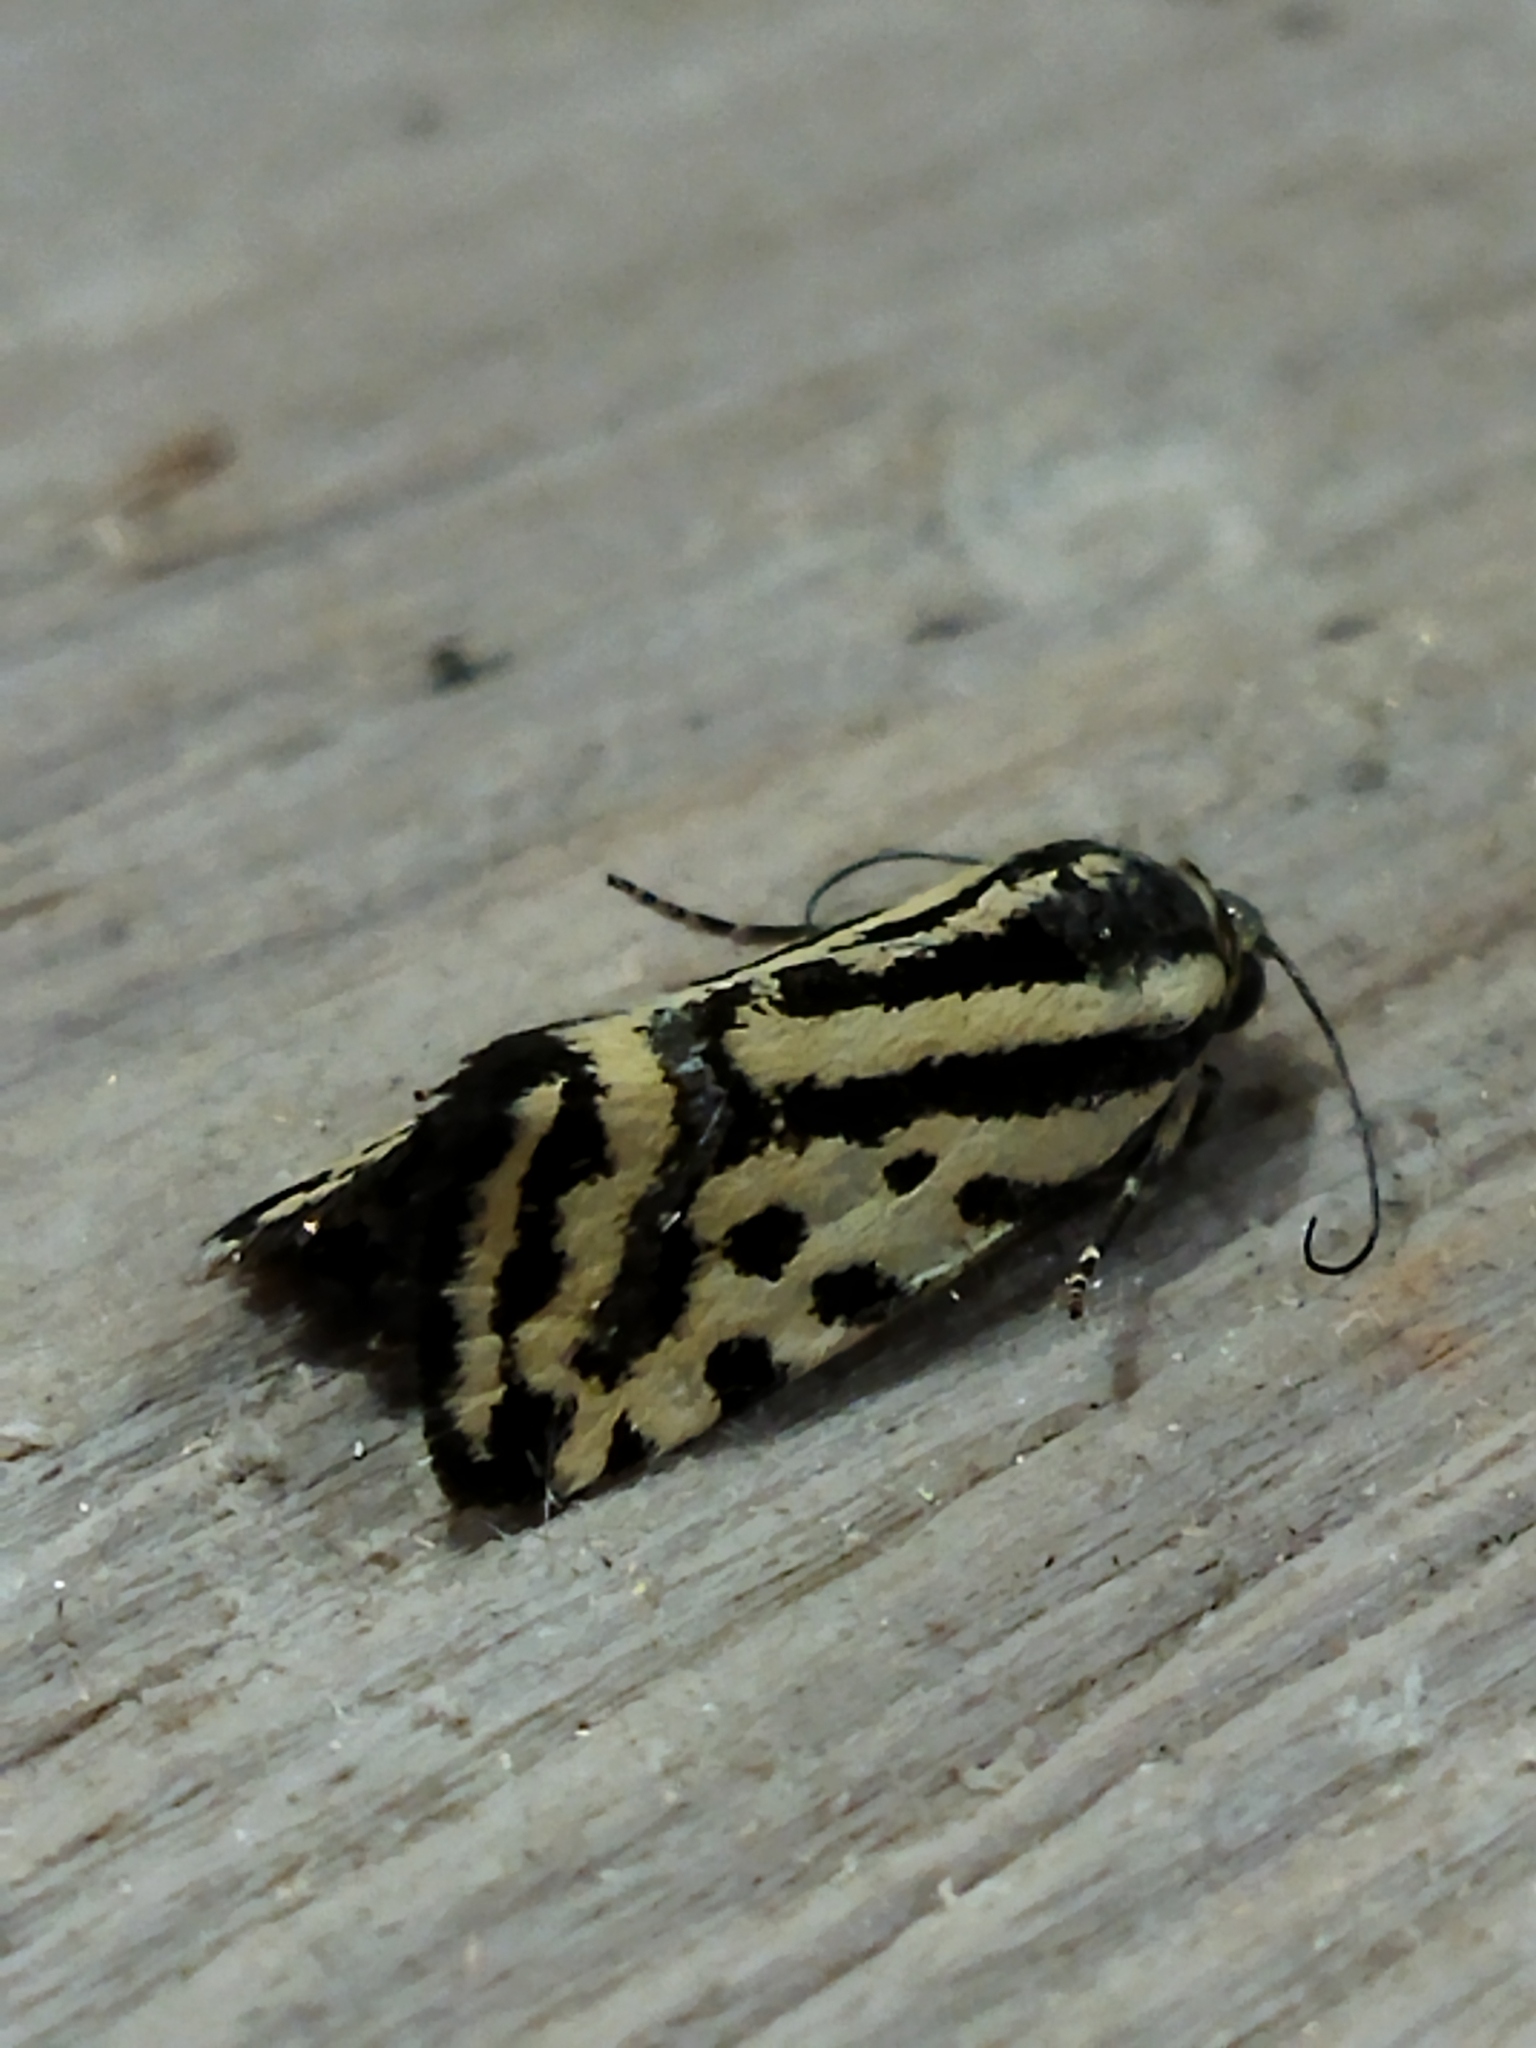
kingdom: Animalia
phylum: Arthropoda
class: Insecta
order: Lepidoptera
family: Noctuidae
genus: Acontia
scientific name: Acontia trabealis
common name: Spotted sulphur
